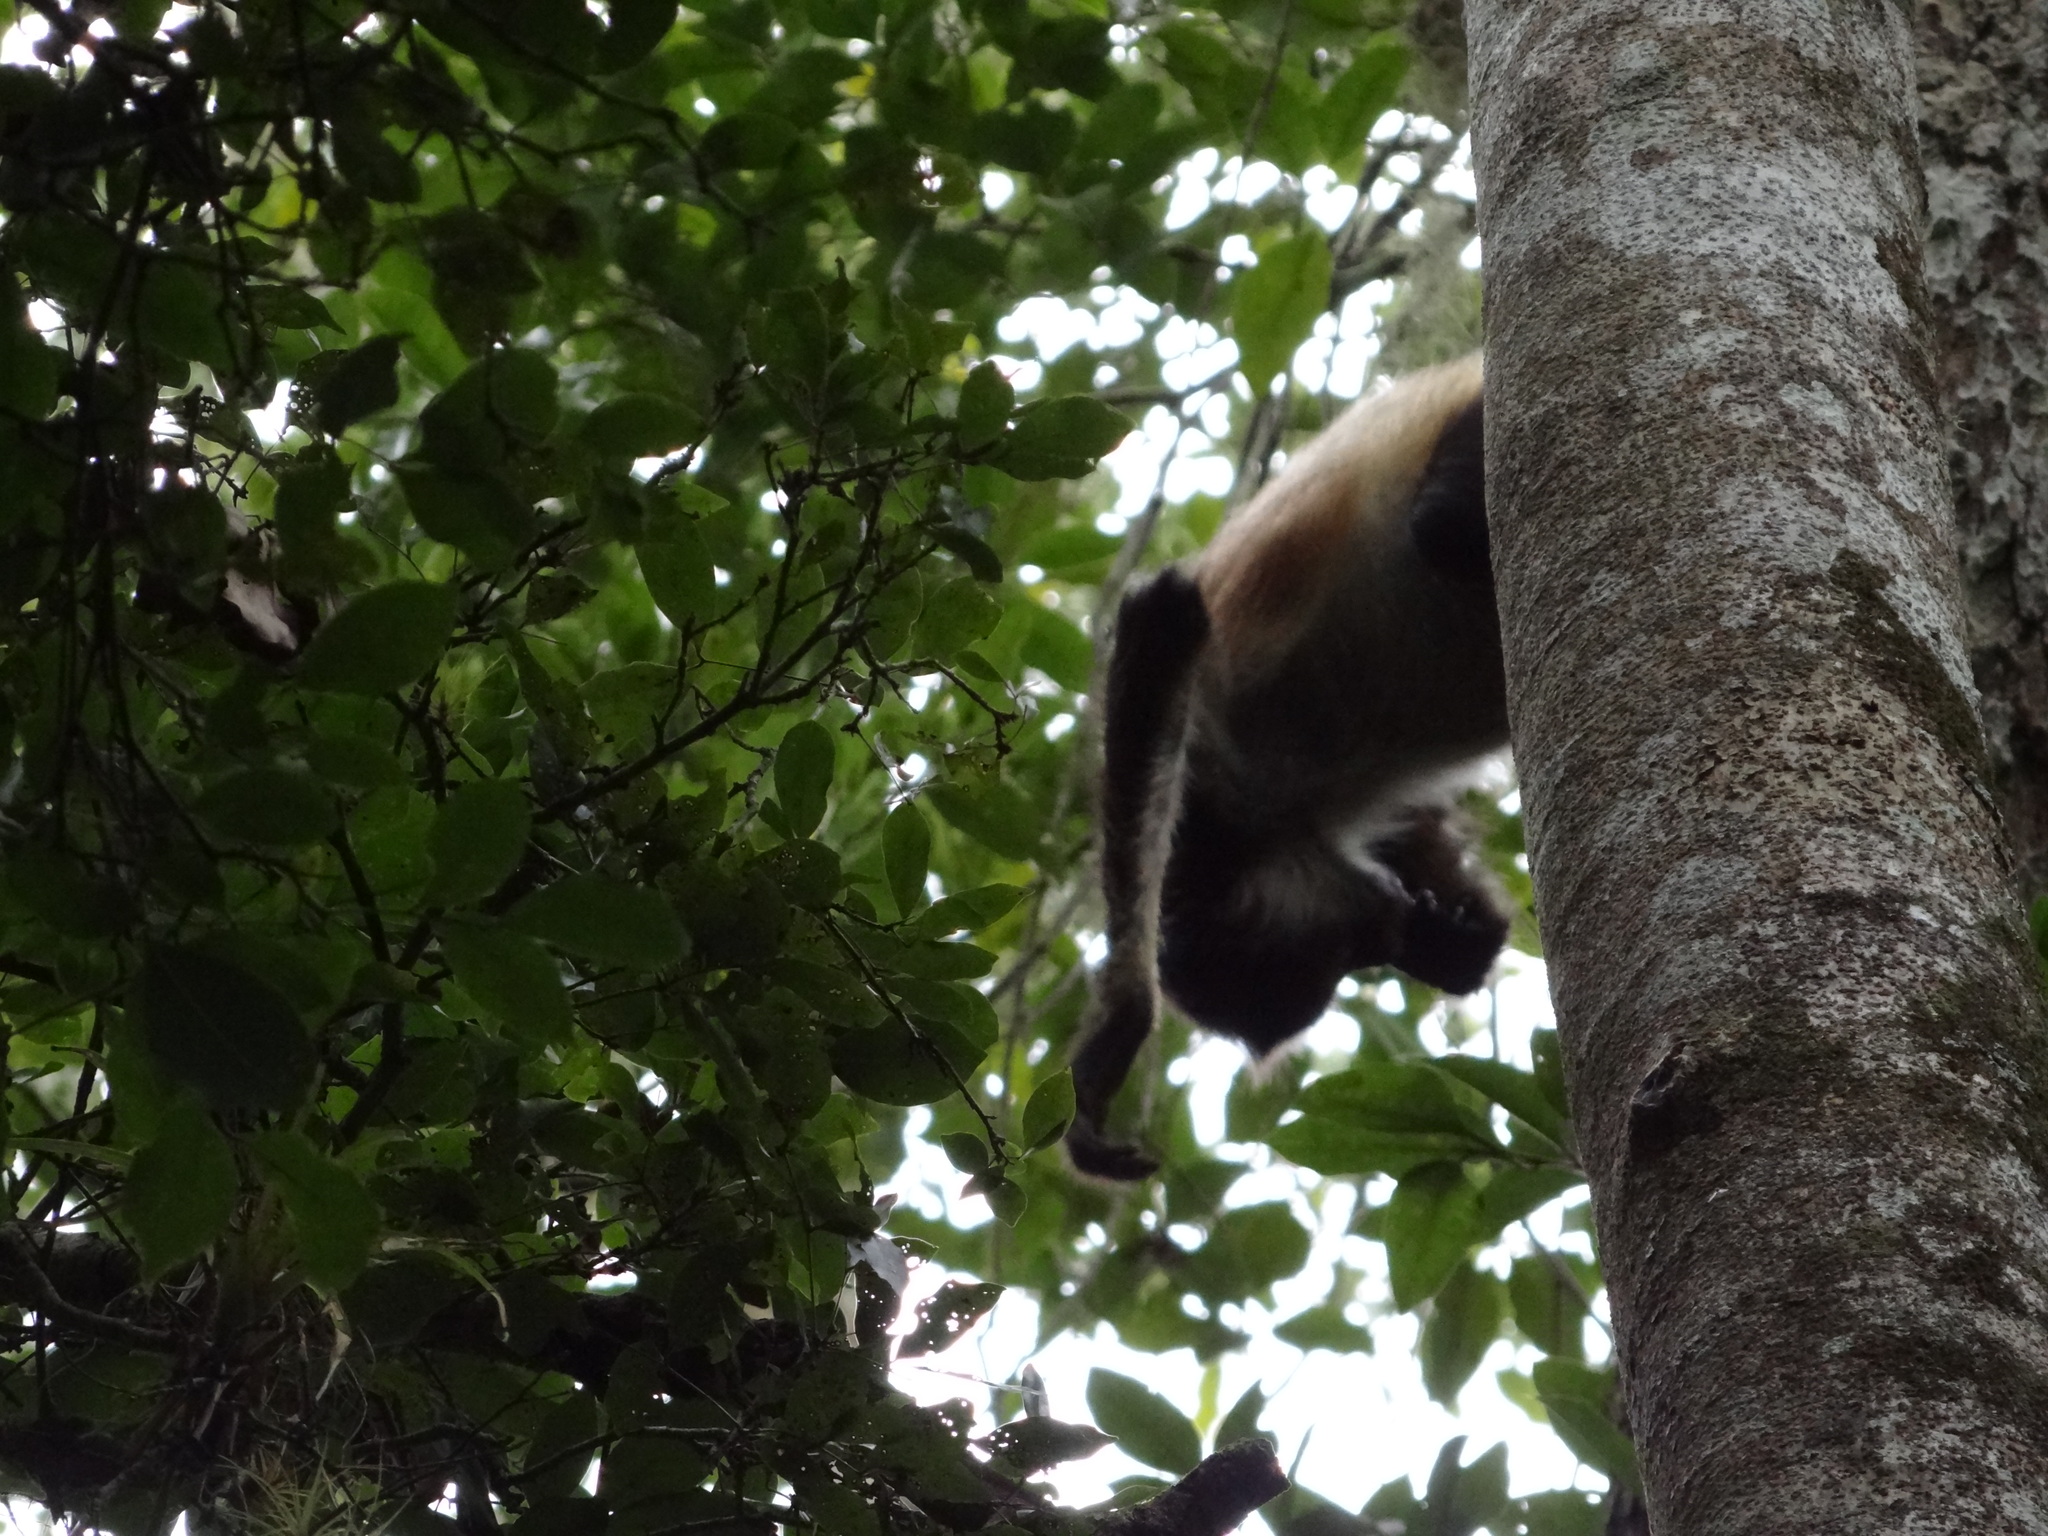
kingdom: Animalia
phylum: Chordata
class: Mammalia
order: Primates
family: Atelidae
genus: Ateles
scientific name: Ateles geoffroyi
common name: Black-handed spider monkey
